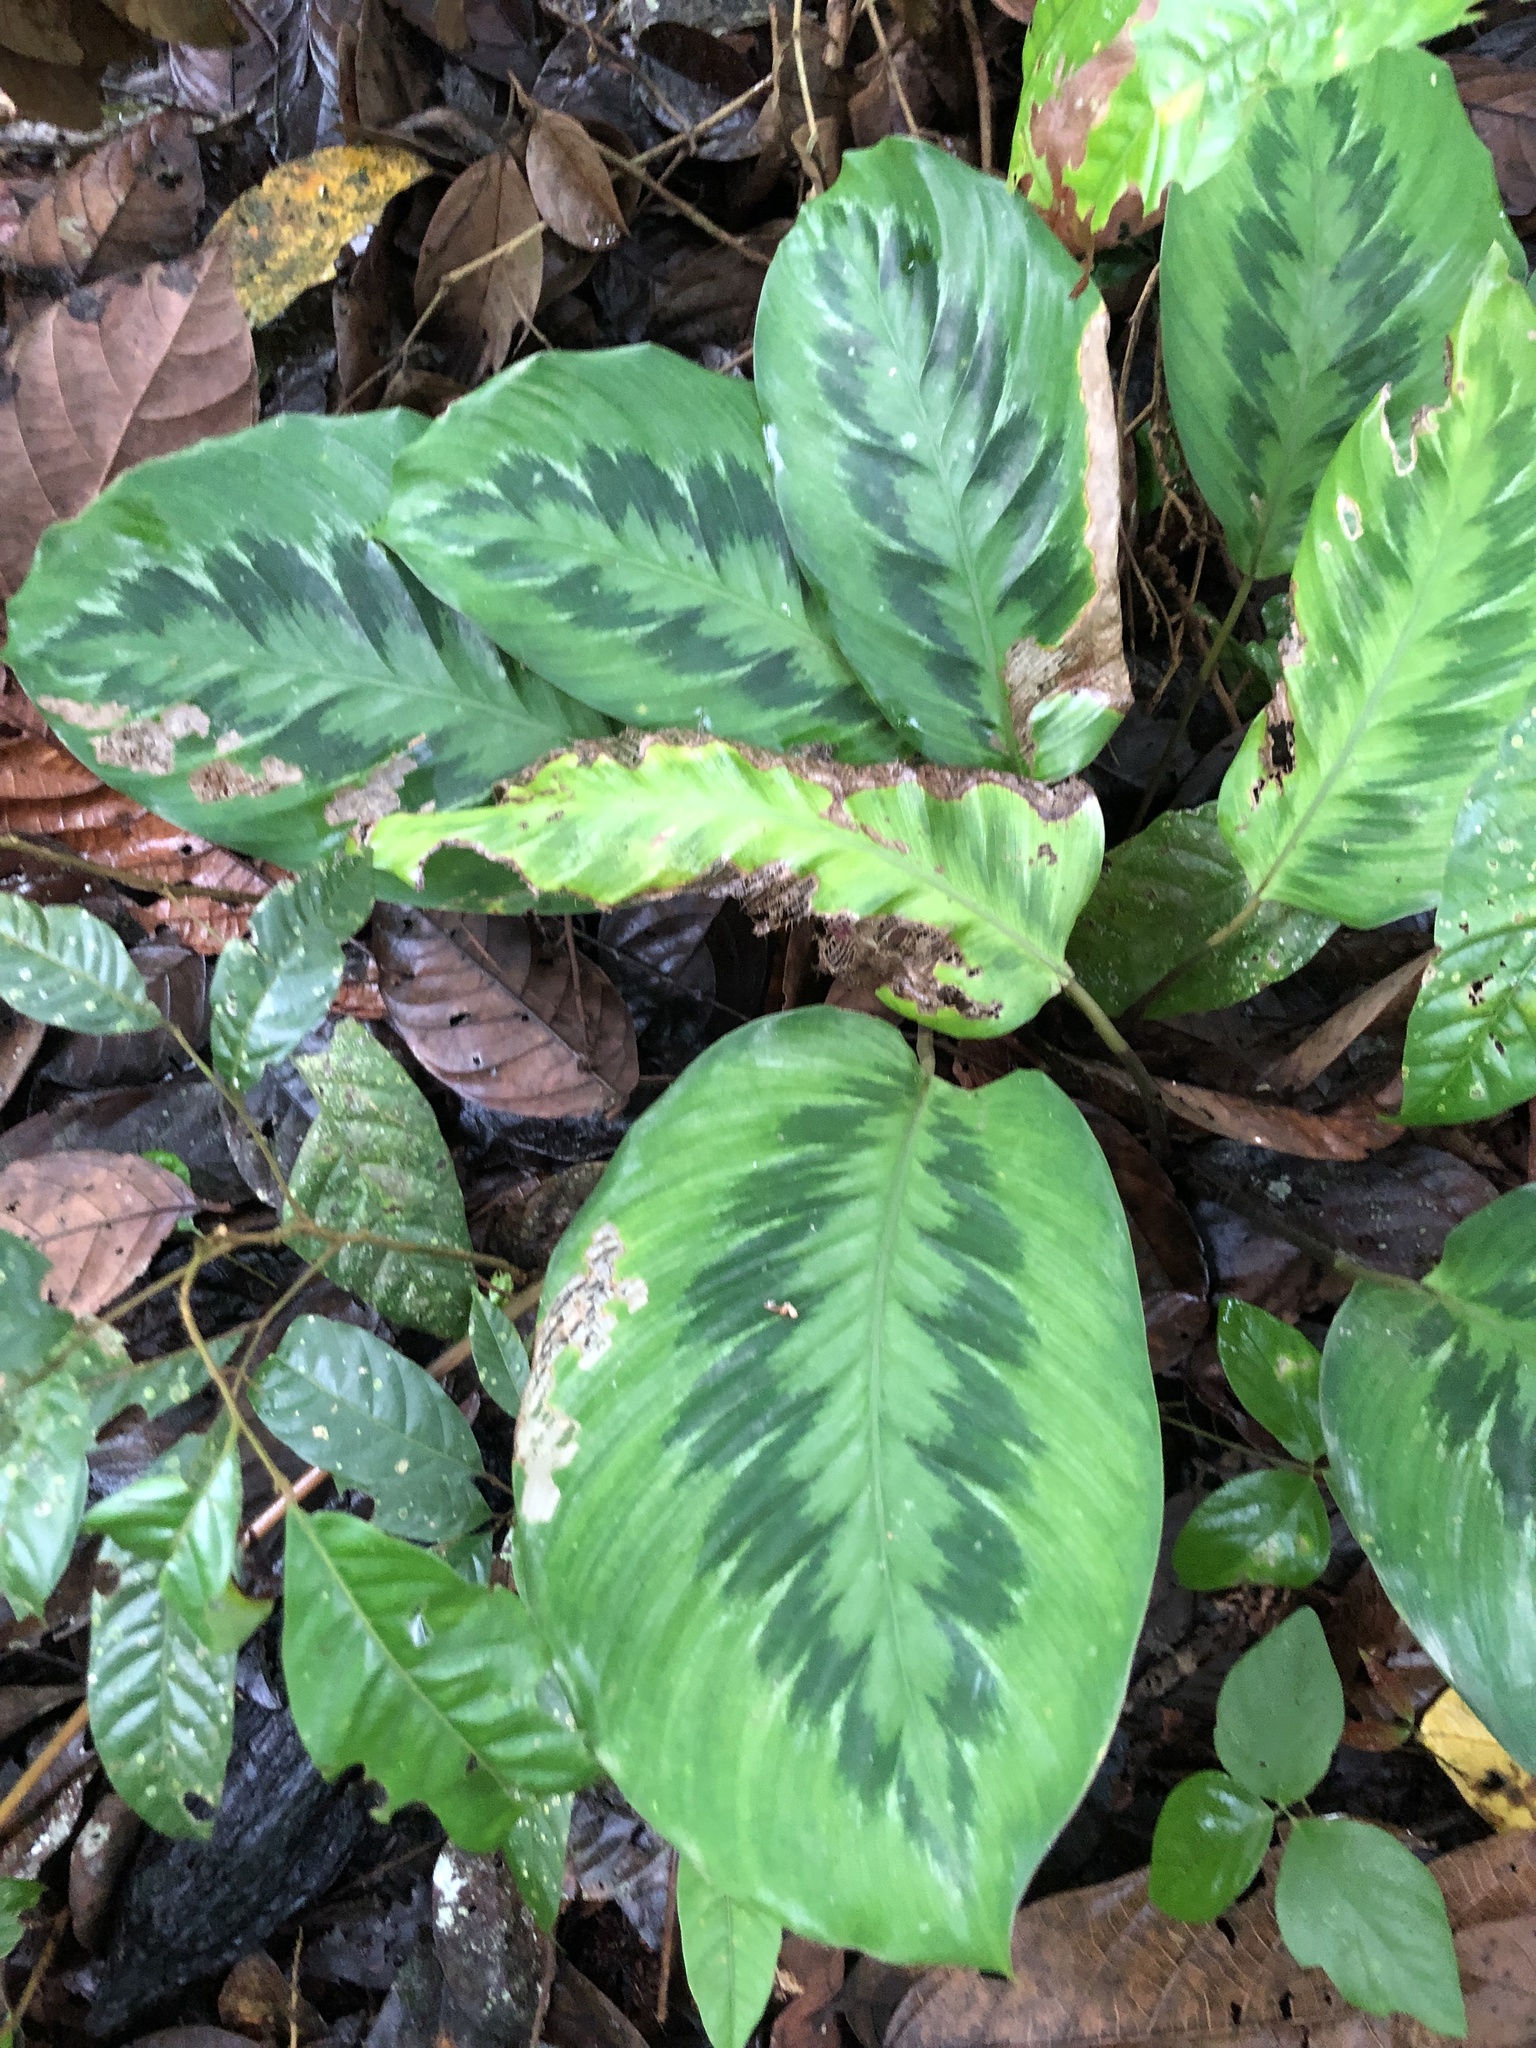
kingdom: Plantae
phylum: Tracheophyta
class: Liliopsida
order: Zingiberales
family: Marantaceae
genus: Goeppertia
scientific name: Goeppertia metallica
